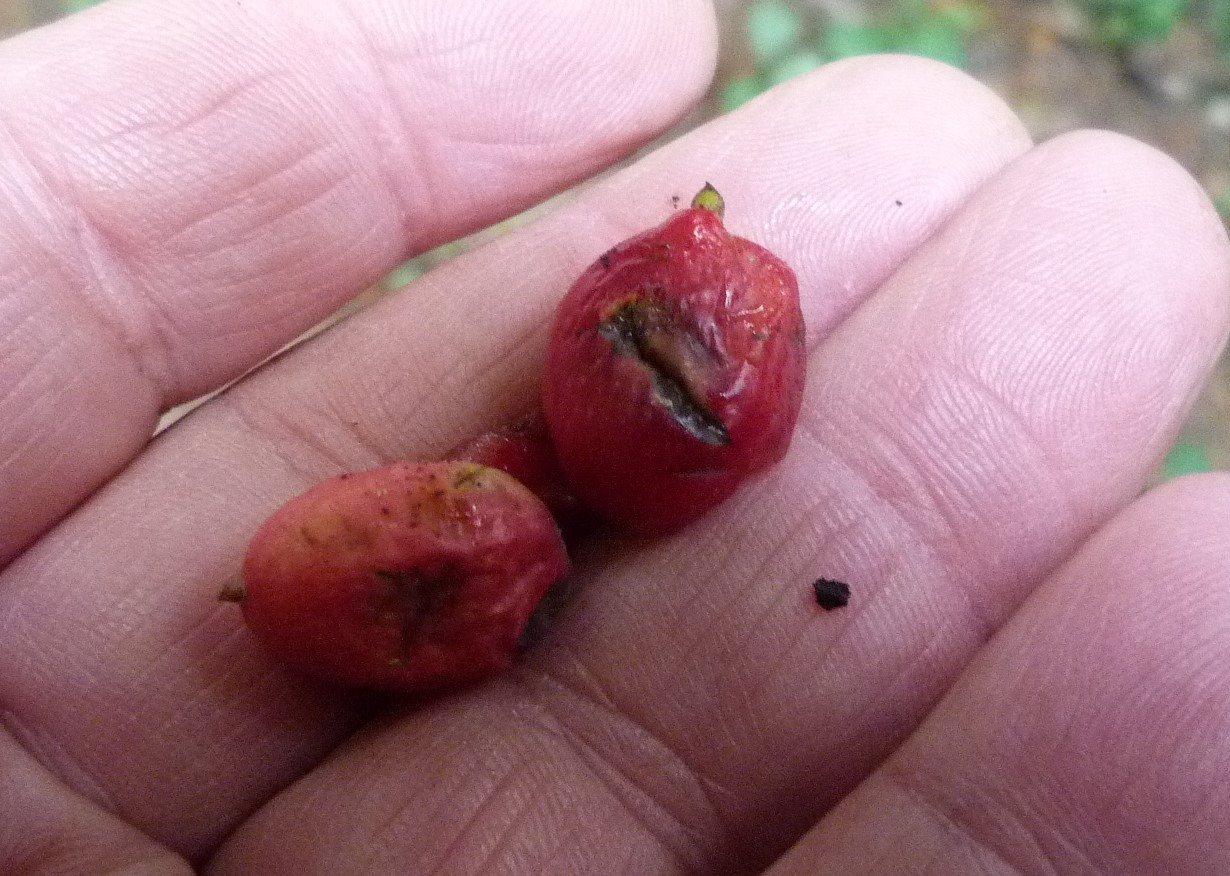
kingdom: Plantae
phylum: Tracheophyta
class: Pinopsida
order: Pinales
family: Podocarpaceae
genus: Prumnopitys
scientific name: Prumnopitys ferruginea
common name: Brown pine
